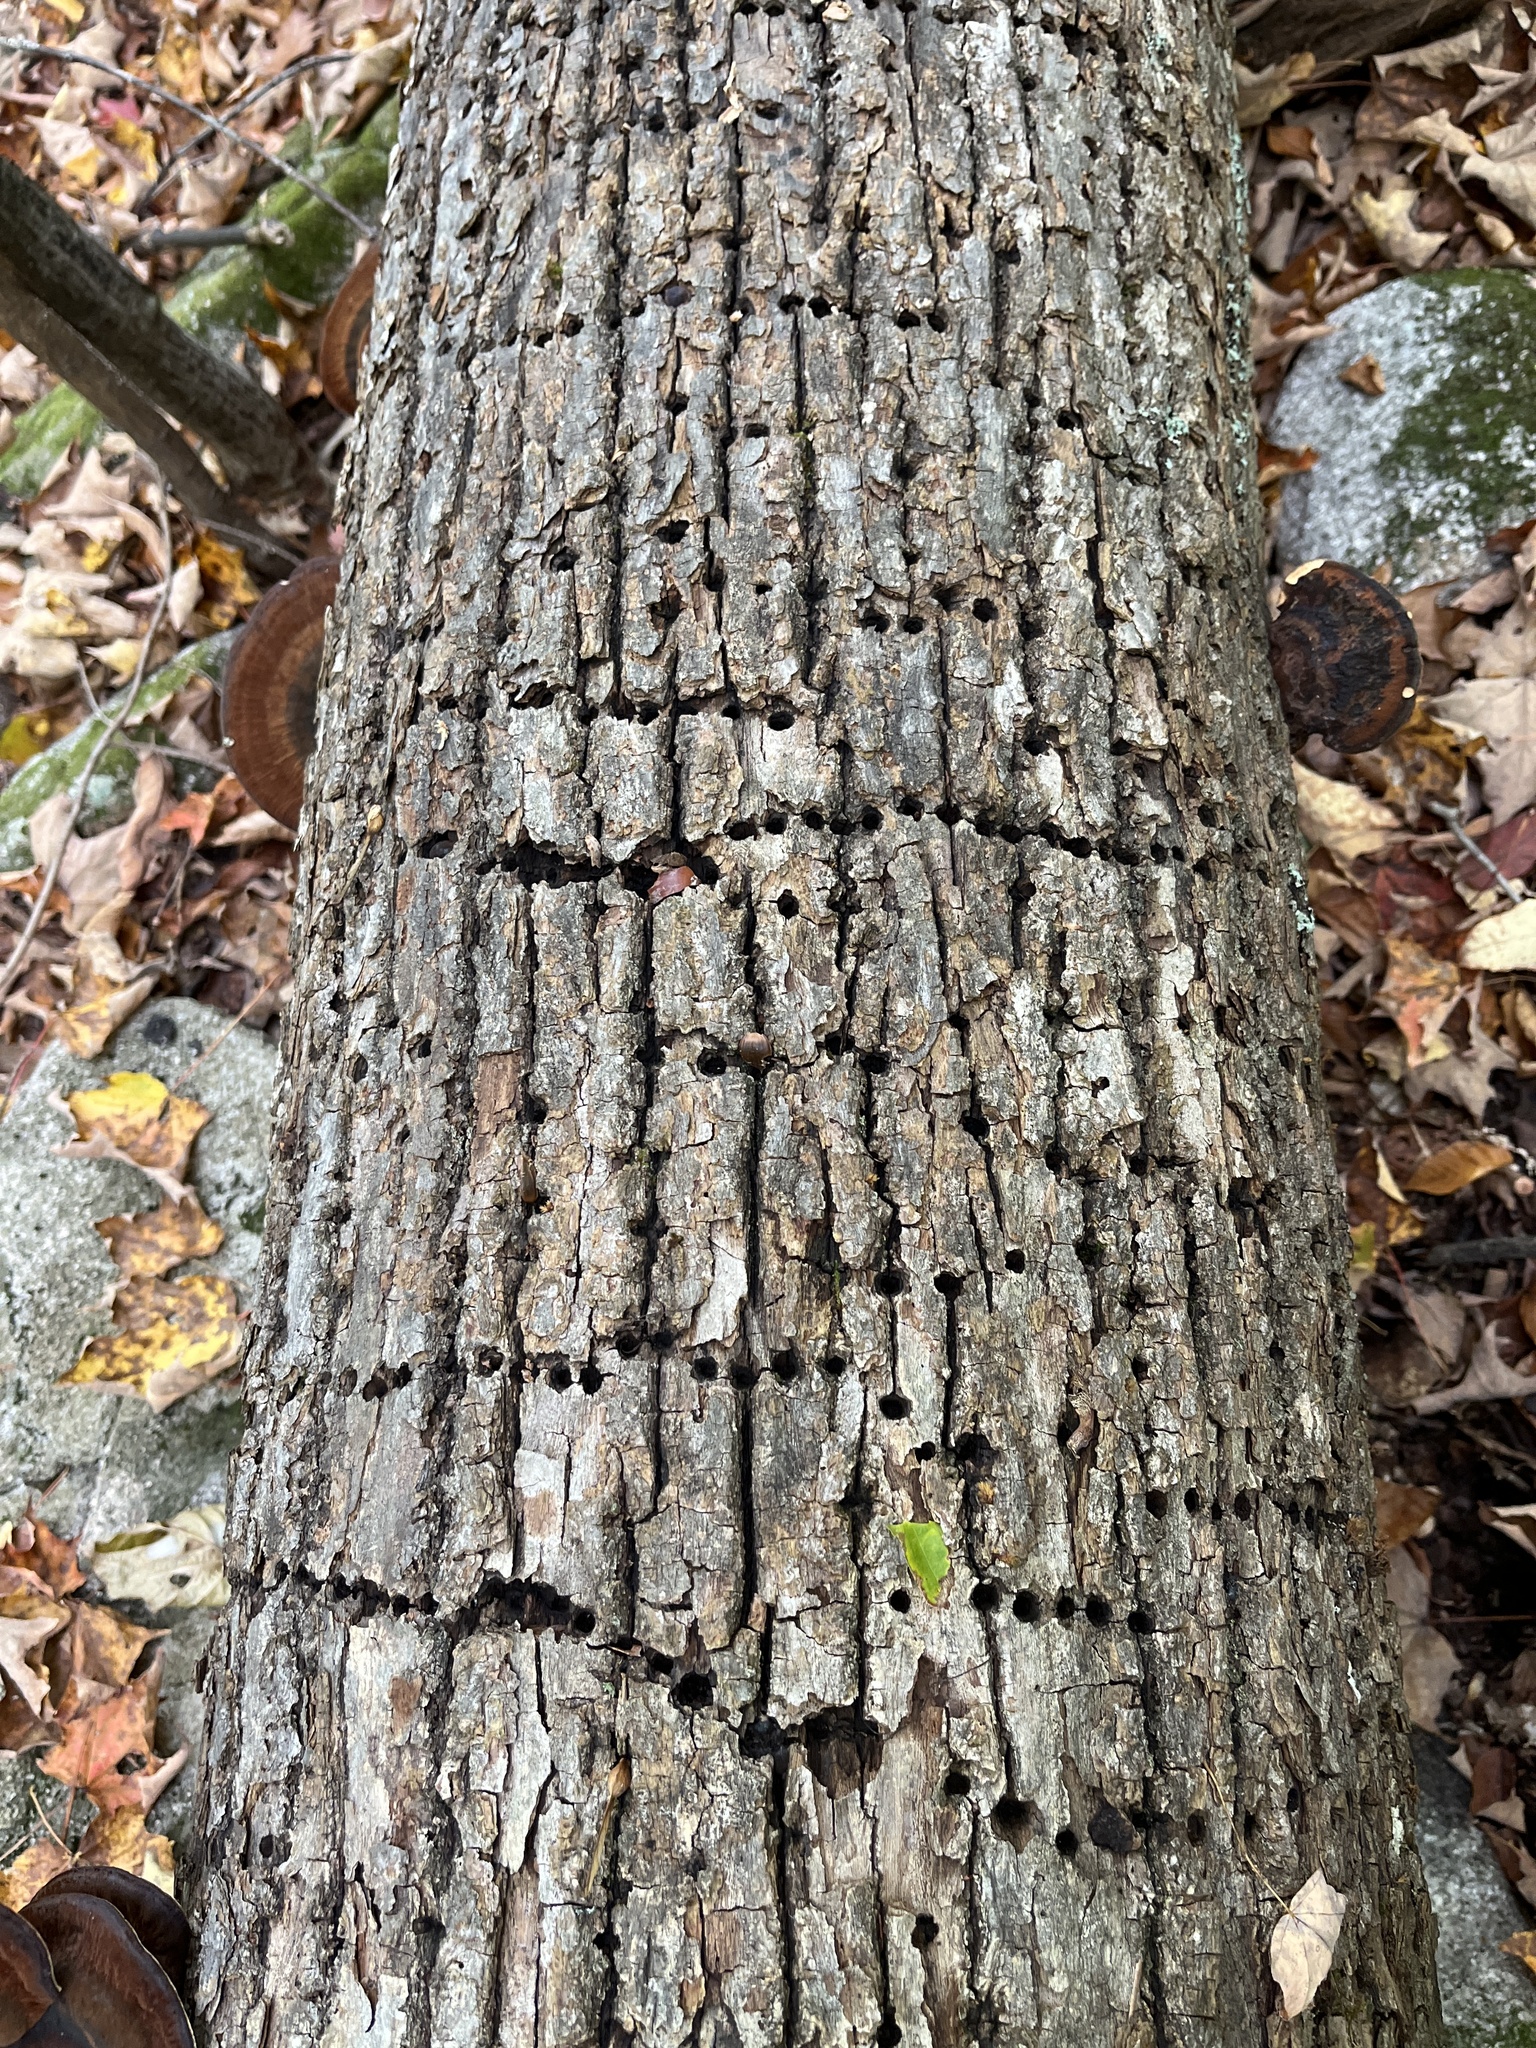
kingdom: Animalia
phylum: Chordata
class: Aves
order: Piciformes
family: Picidae
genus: Sphyrapicus
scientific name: Sphyrapicus varius
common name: Yellow-bellied sapsucker
